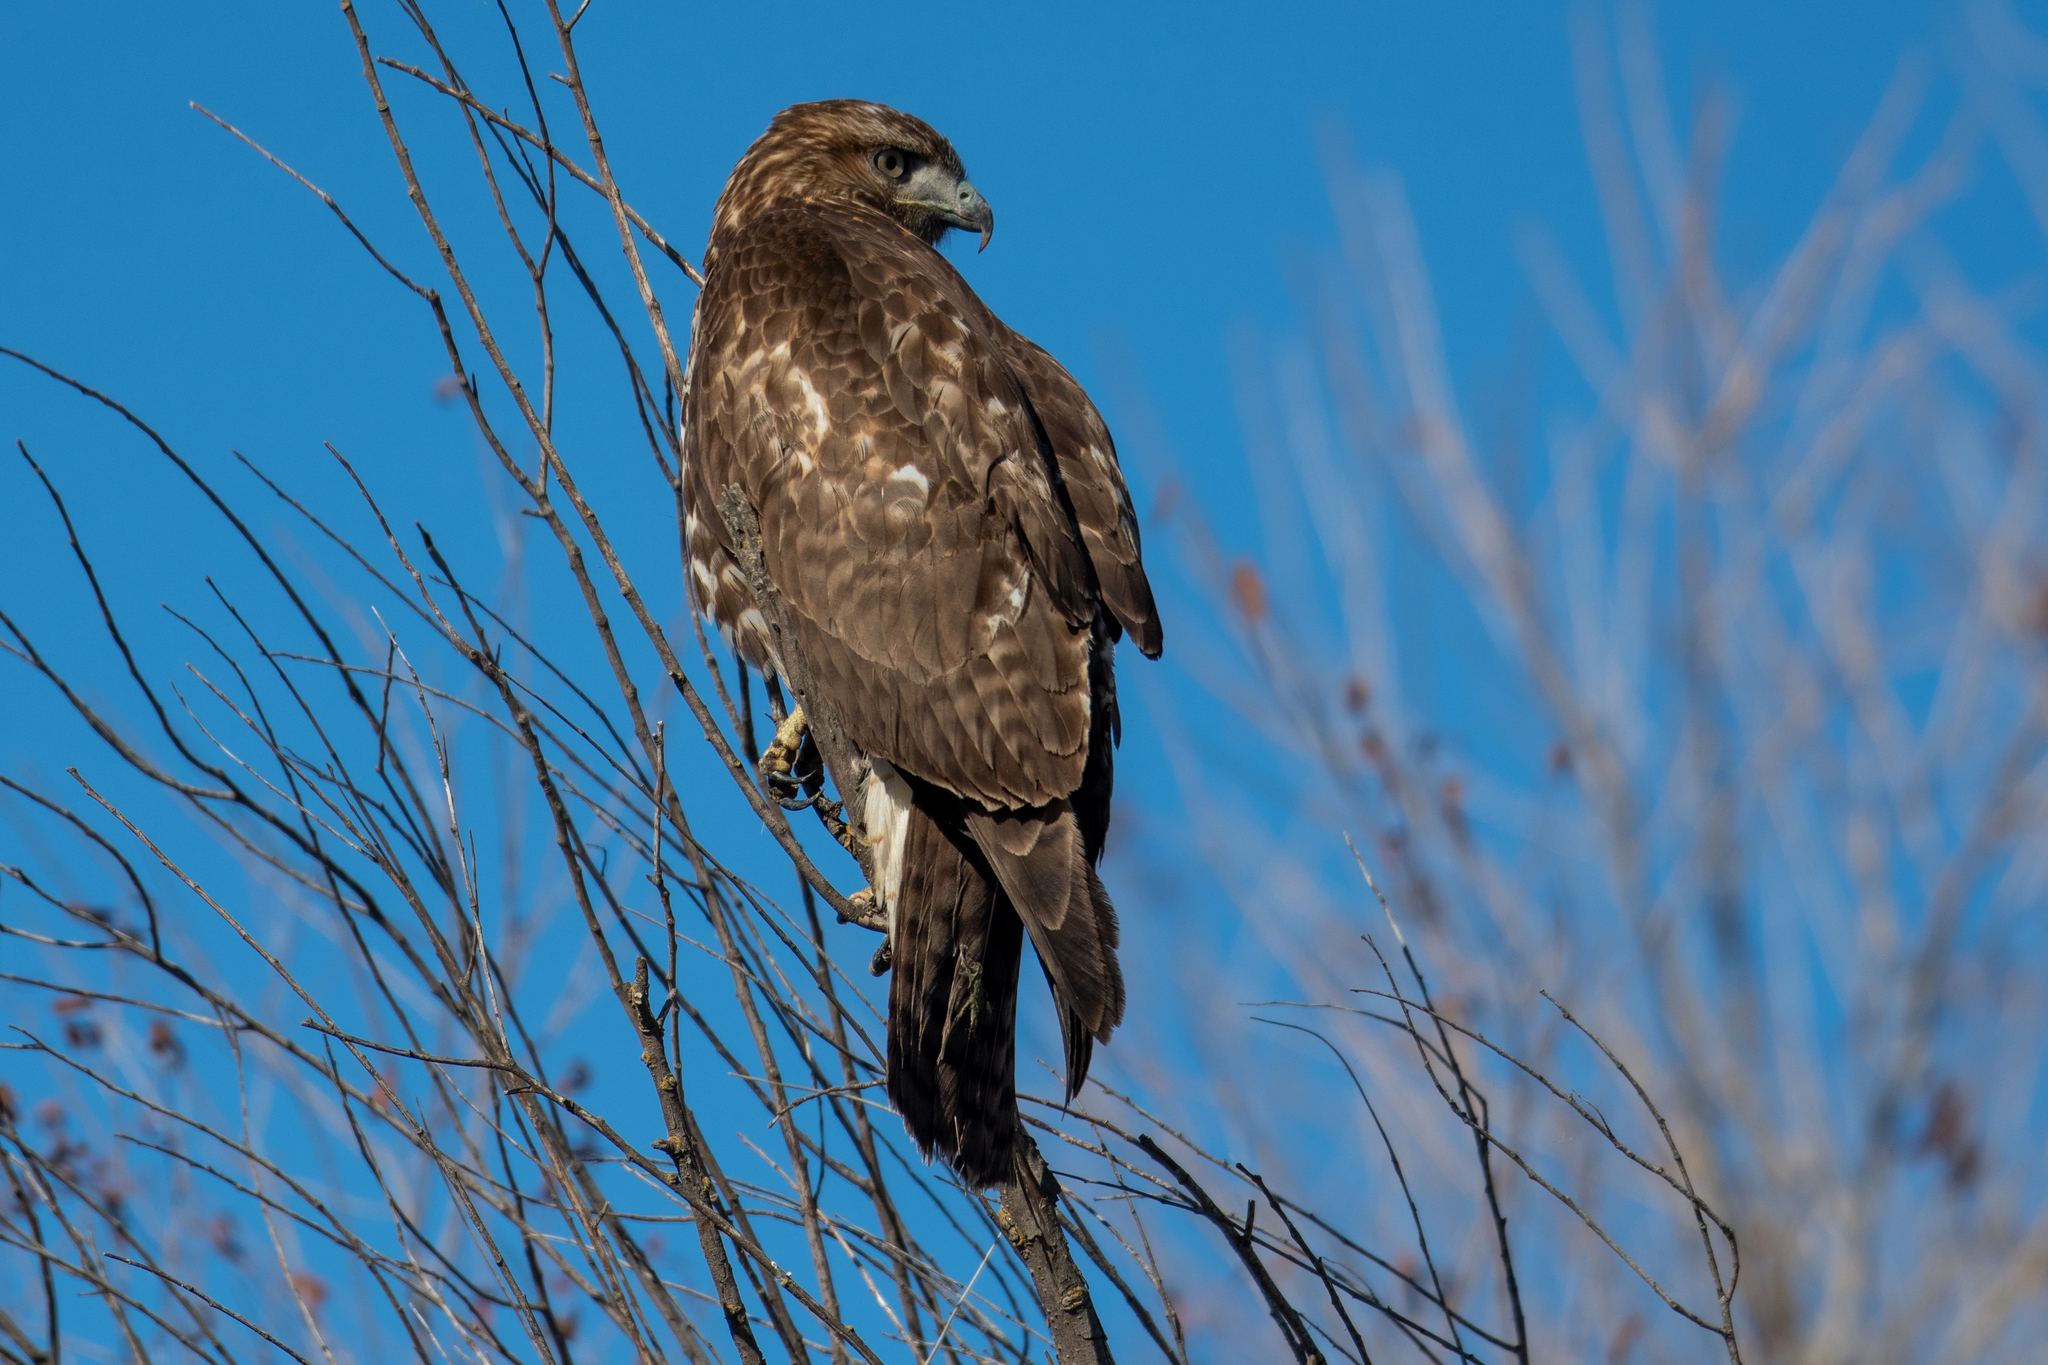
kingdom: Animalia
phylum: Chordata
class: Aves
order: Accipitriformes
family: Accipitridae
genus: Buteo
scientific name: Buteo jamaicensis
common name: Red-tailed hawk
